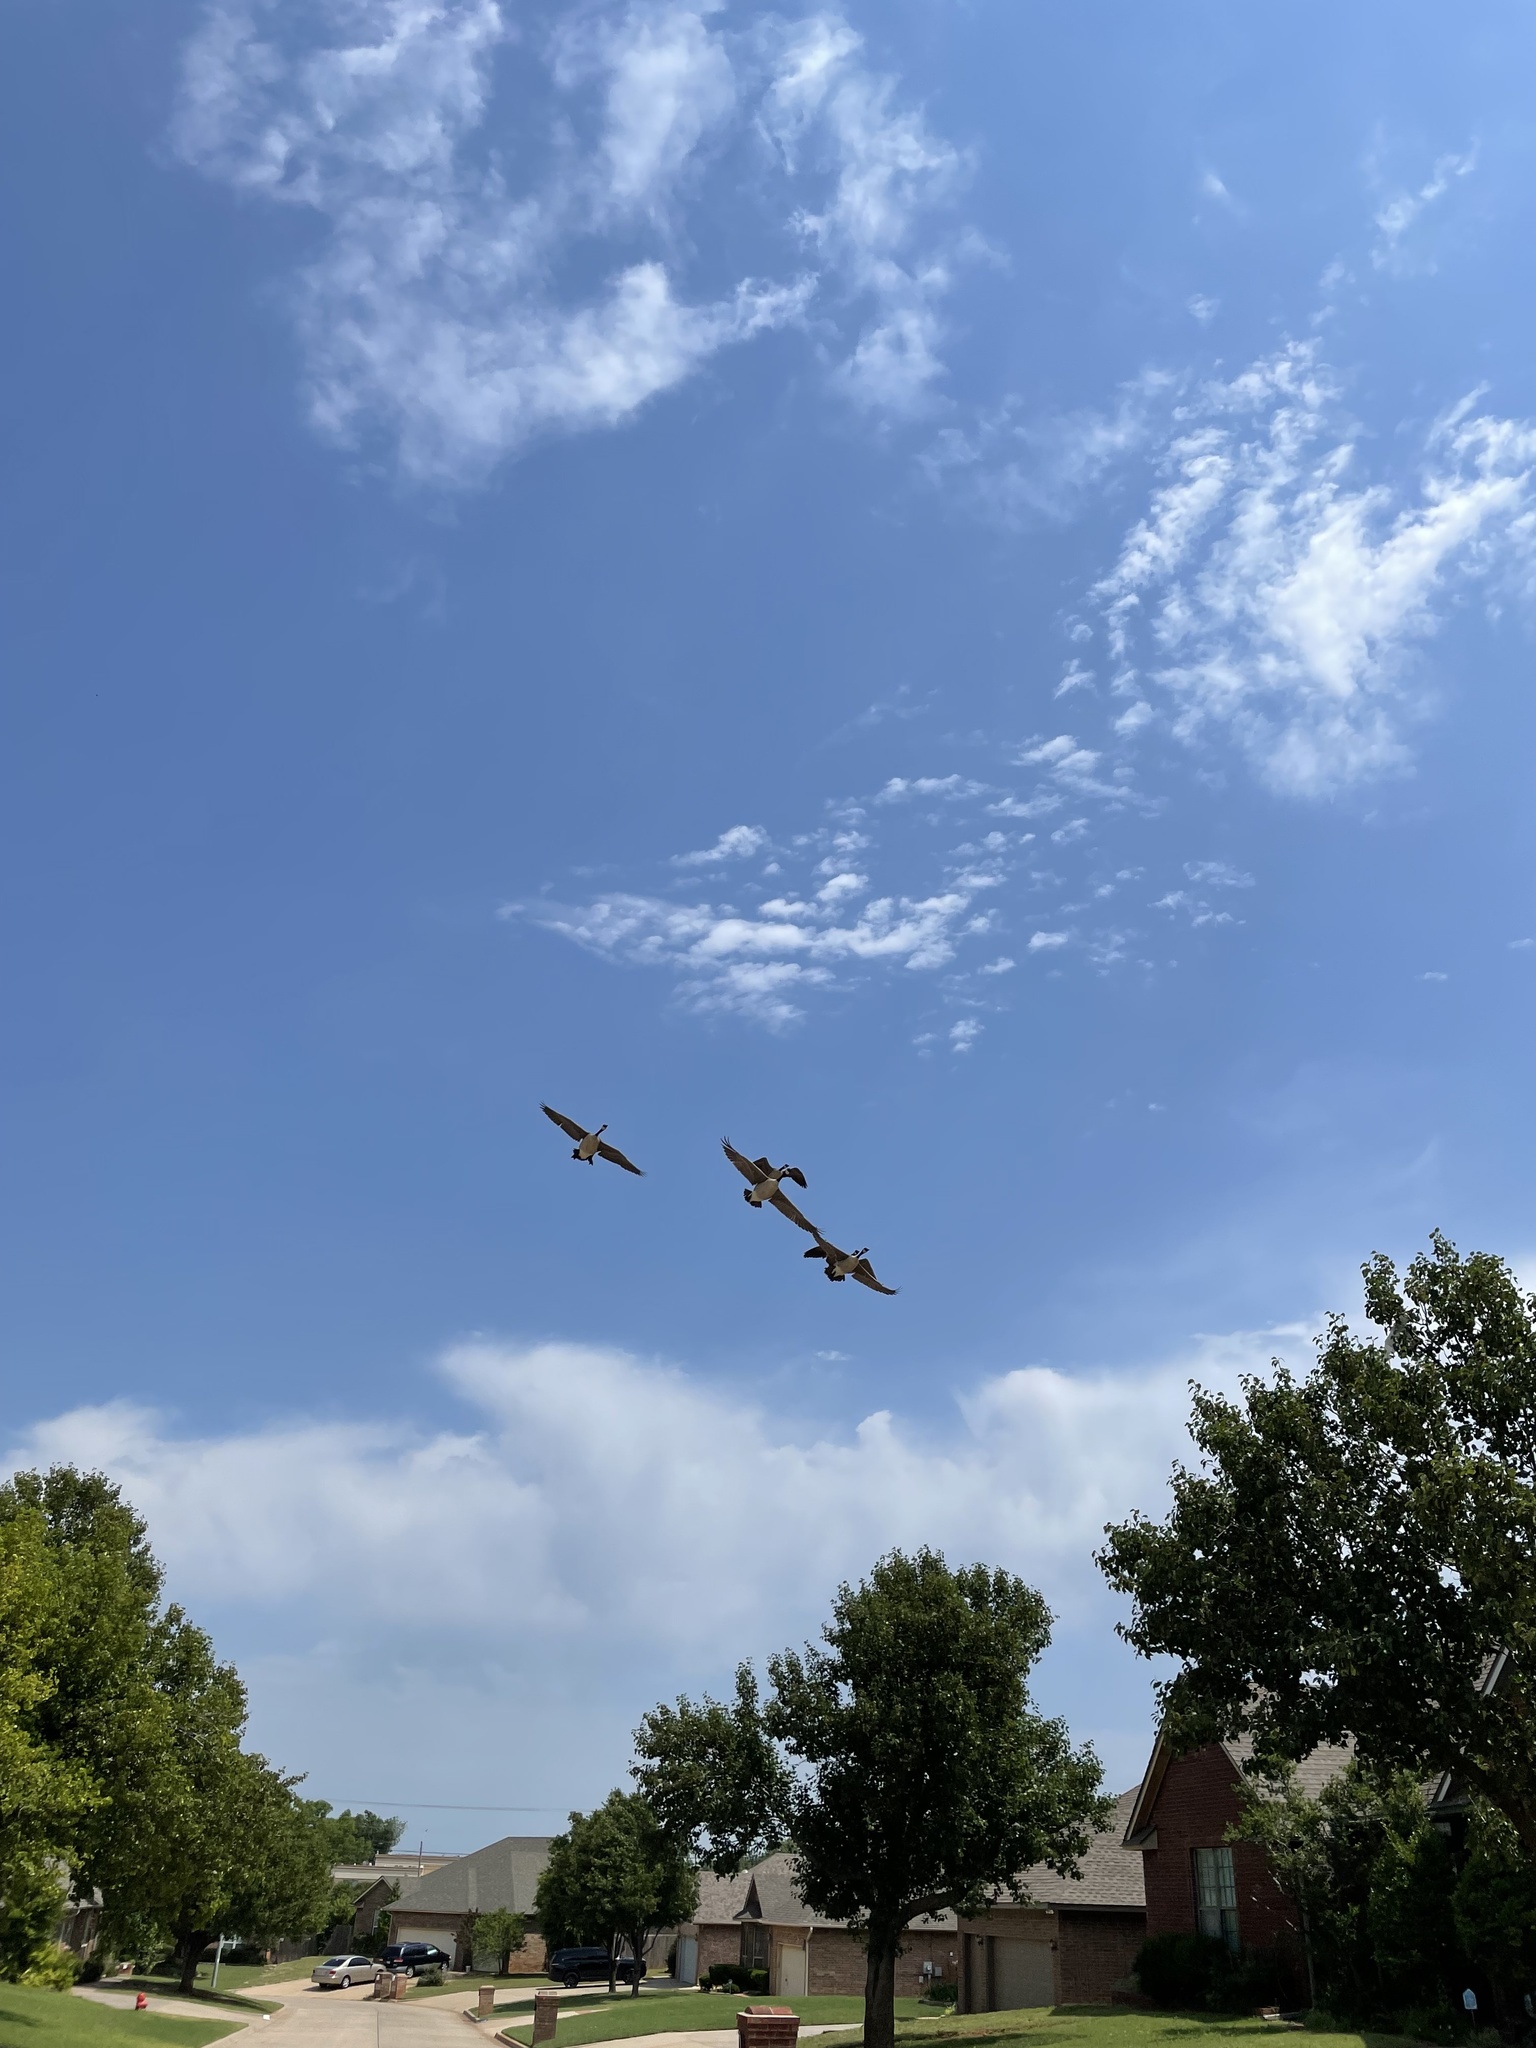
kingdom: Animalia
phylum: Chordata
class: Aves
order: Anseriformes
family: Anatidae
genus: Branta
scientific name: Branta canadensis
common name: Canada goose
